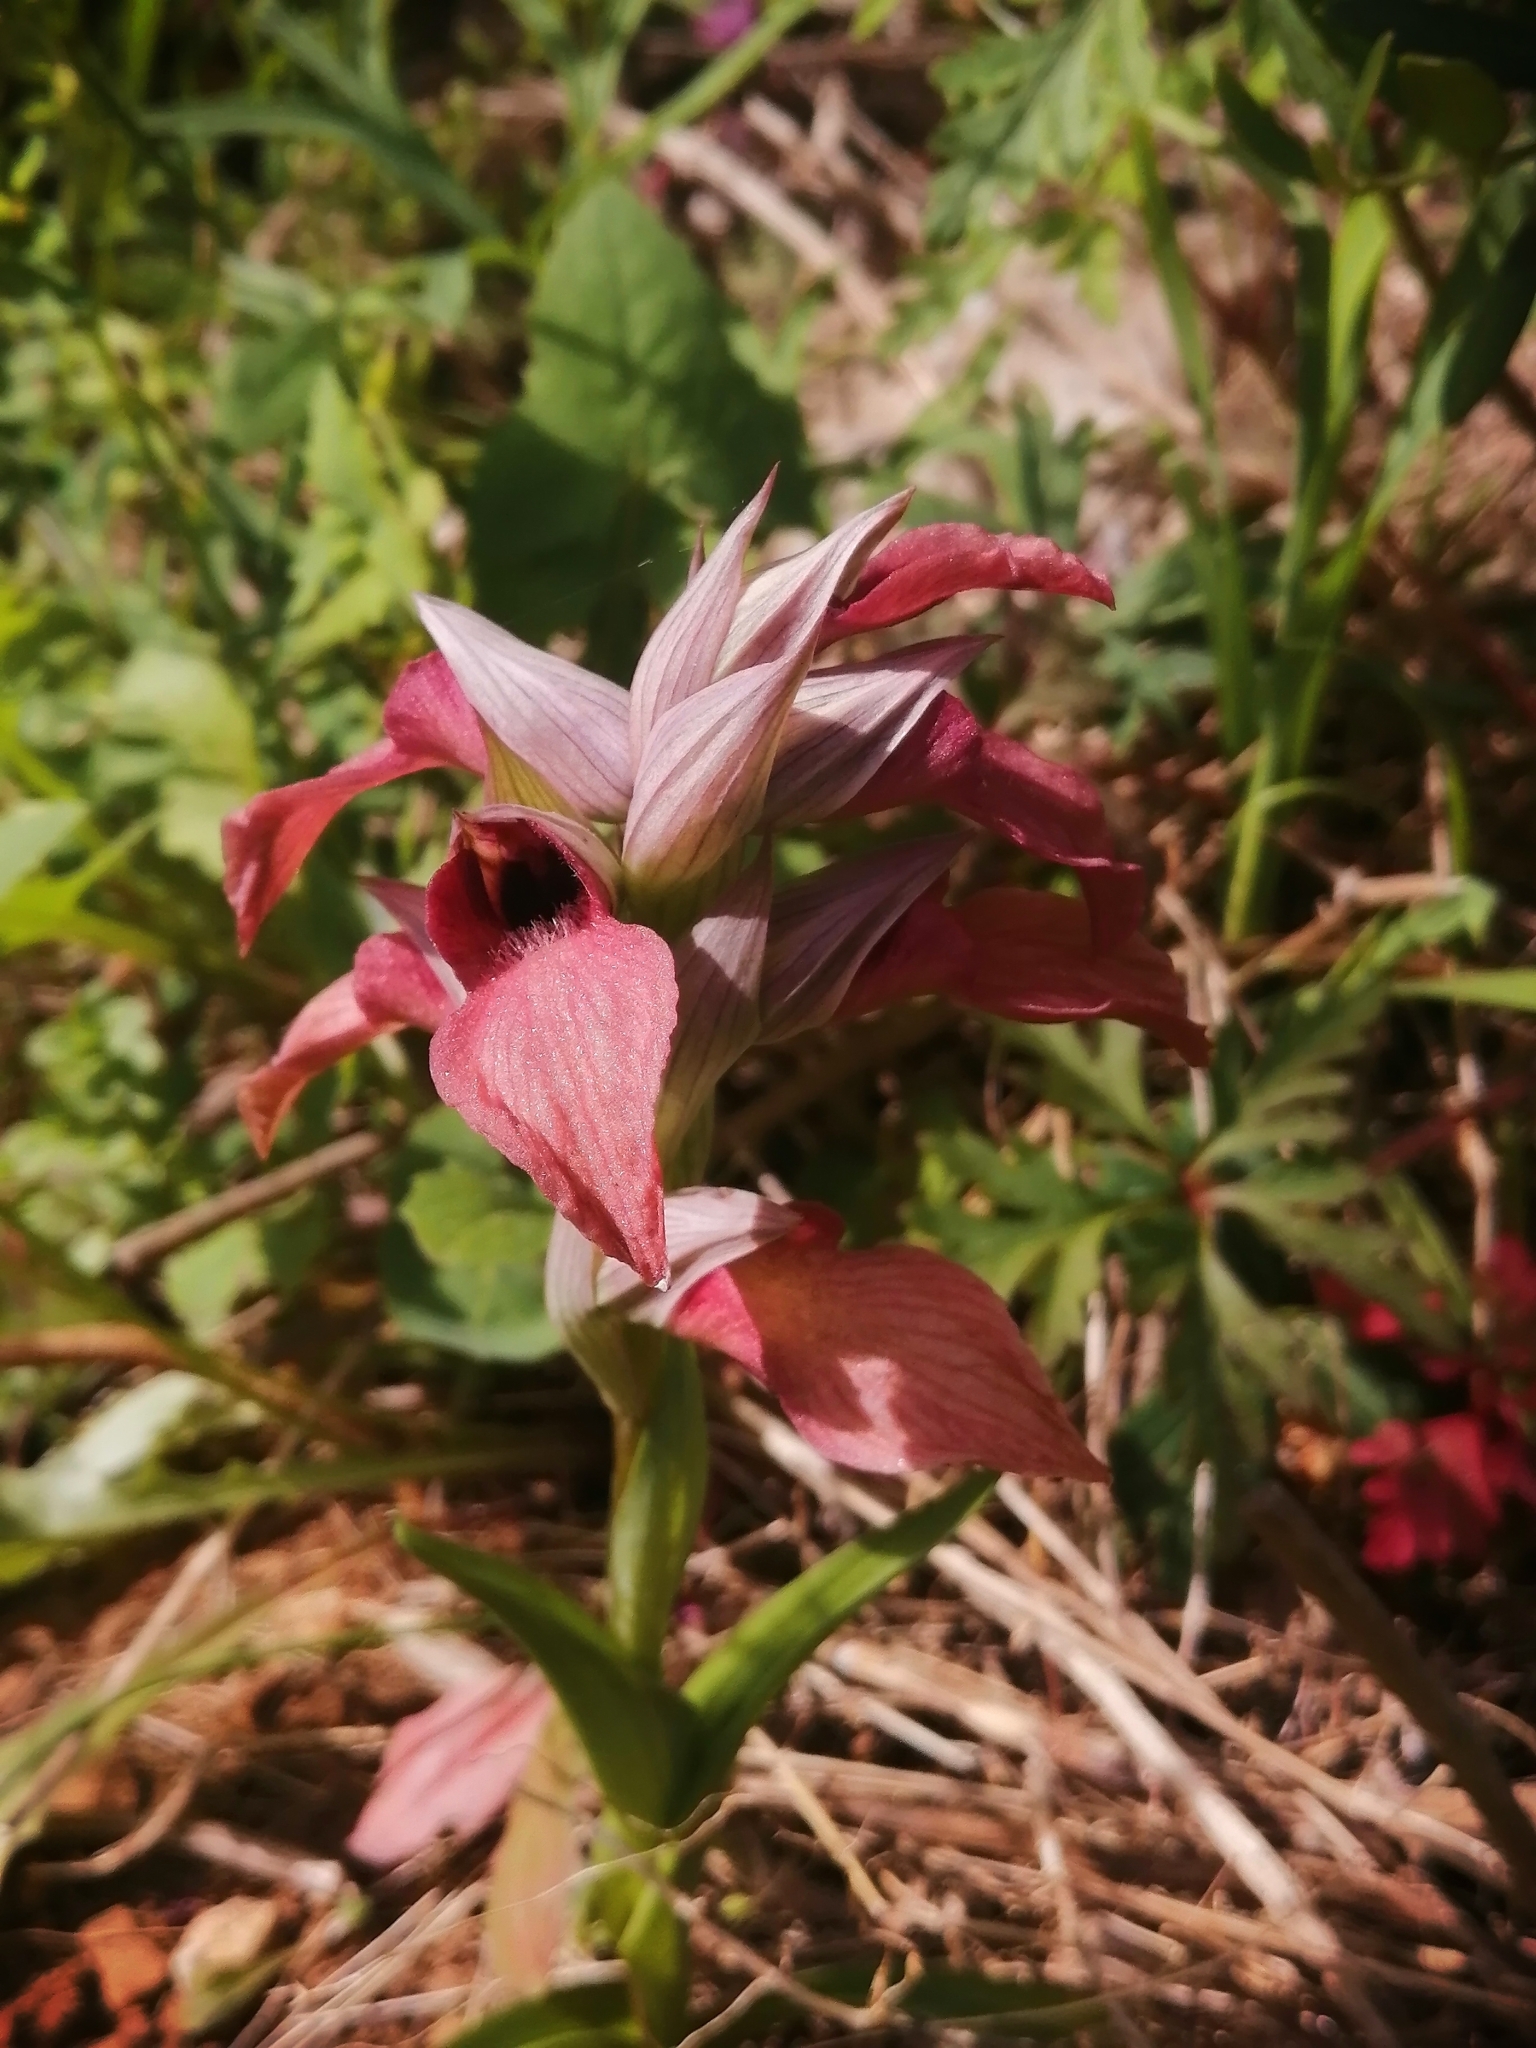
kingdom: Plantae
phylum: Tracheophyta
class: Liliopsida
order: Asparagales
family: Orchidaceae
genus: Serapias
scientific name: Serapias neglecta
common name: Neglected serapias
